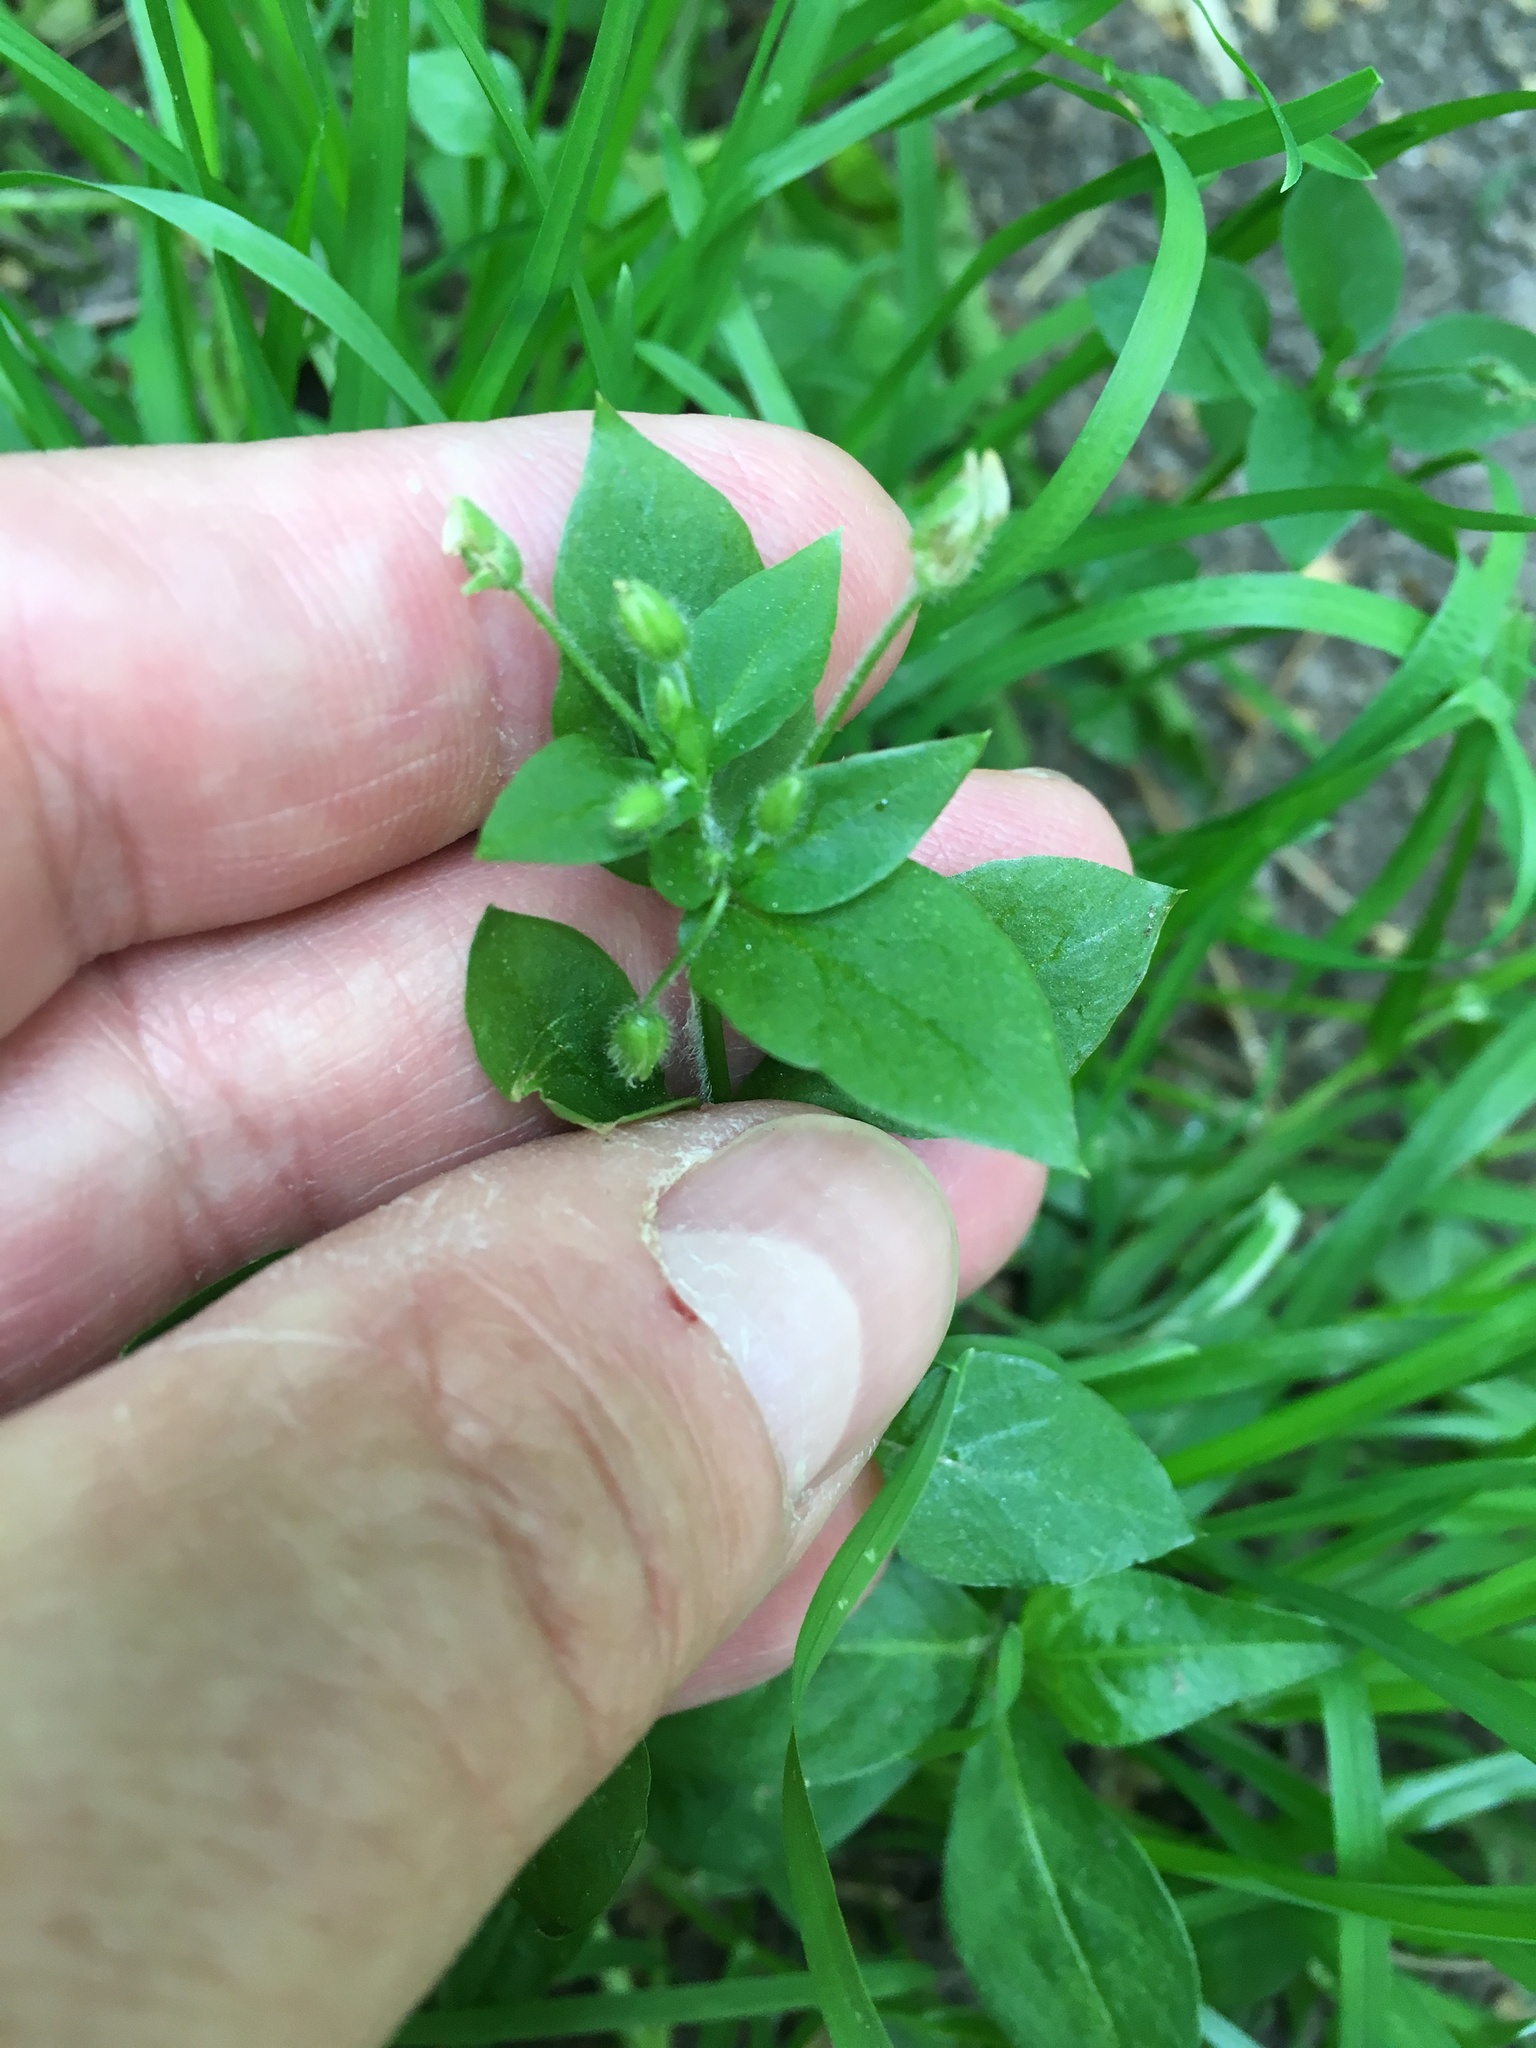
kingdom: Plantae
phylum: Tracheophyta
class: Magnoliopsida
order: Caryophyllales
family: Caryophyllaceae
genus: Stellaria
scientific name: Stellaria media
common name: Common chickweed
